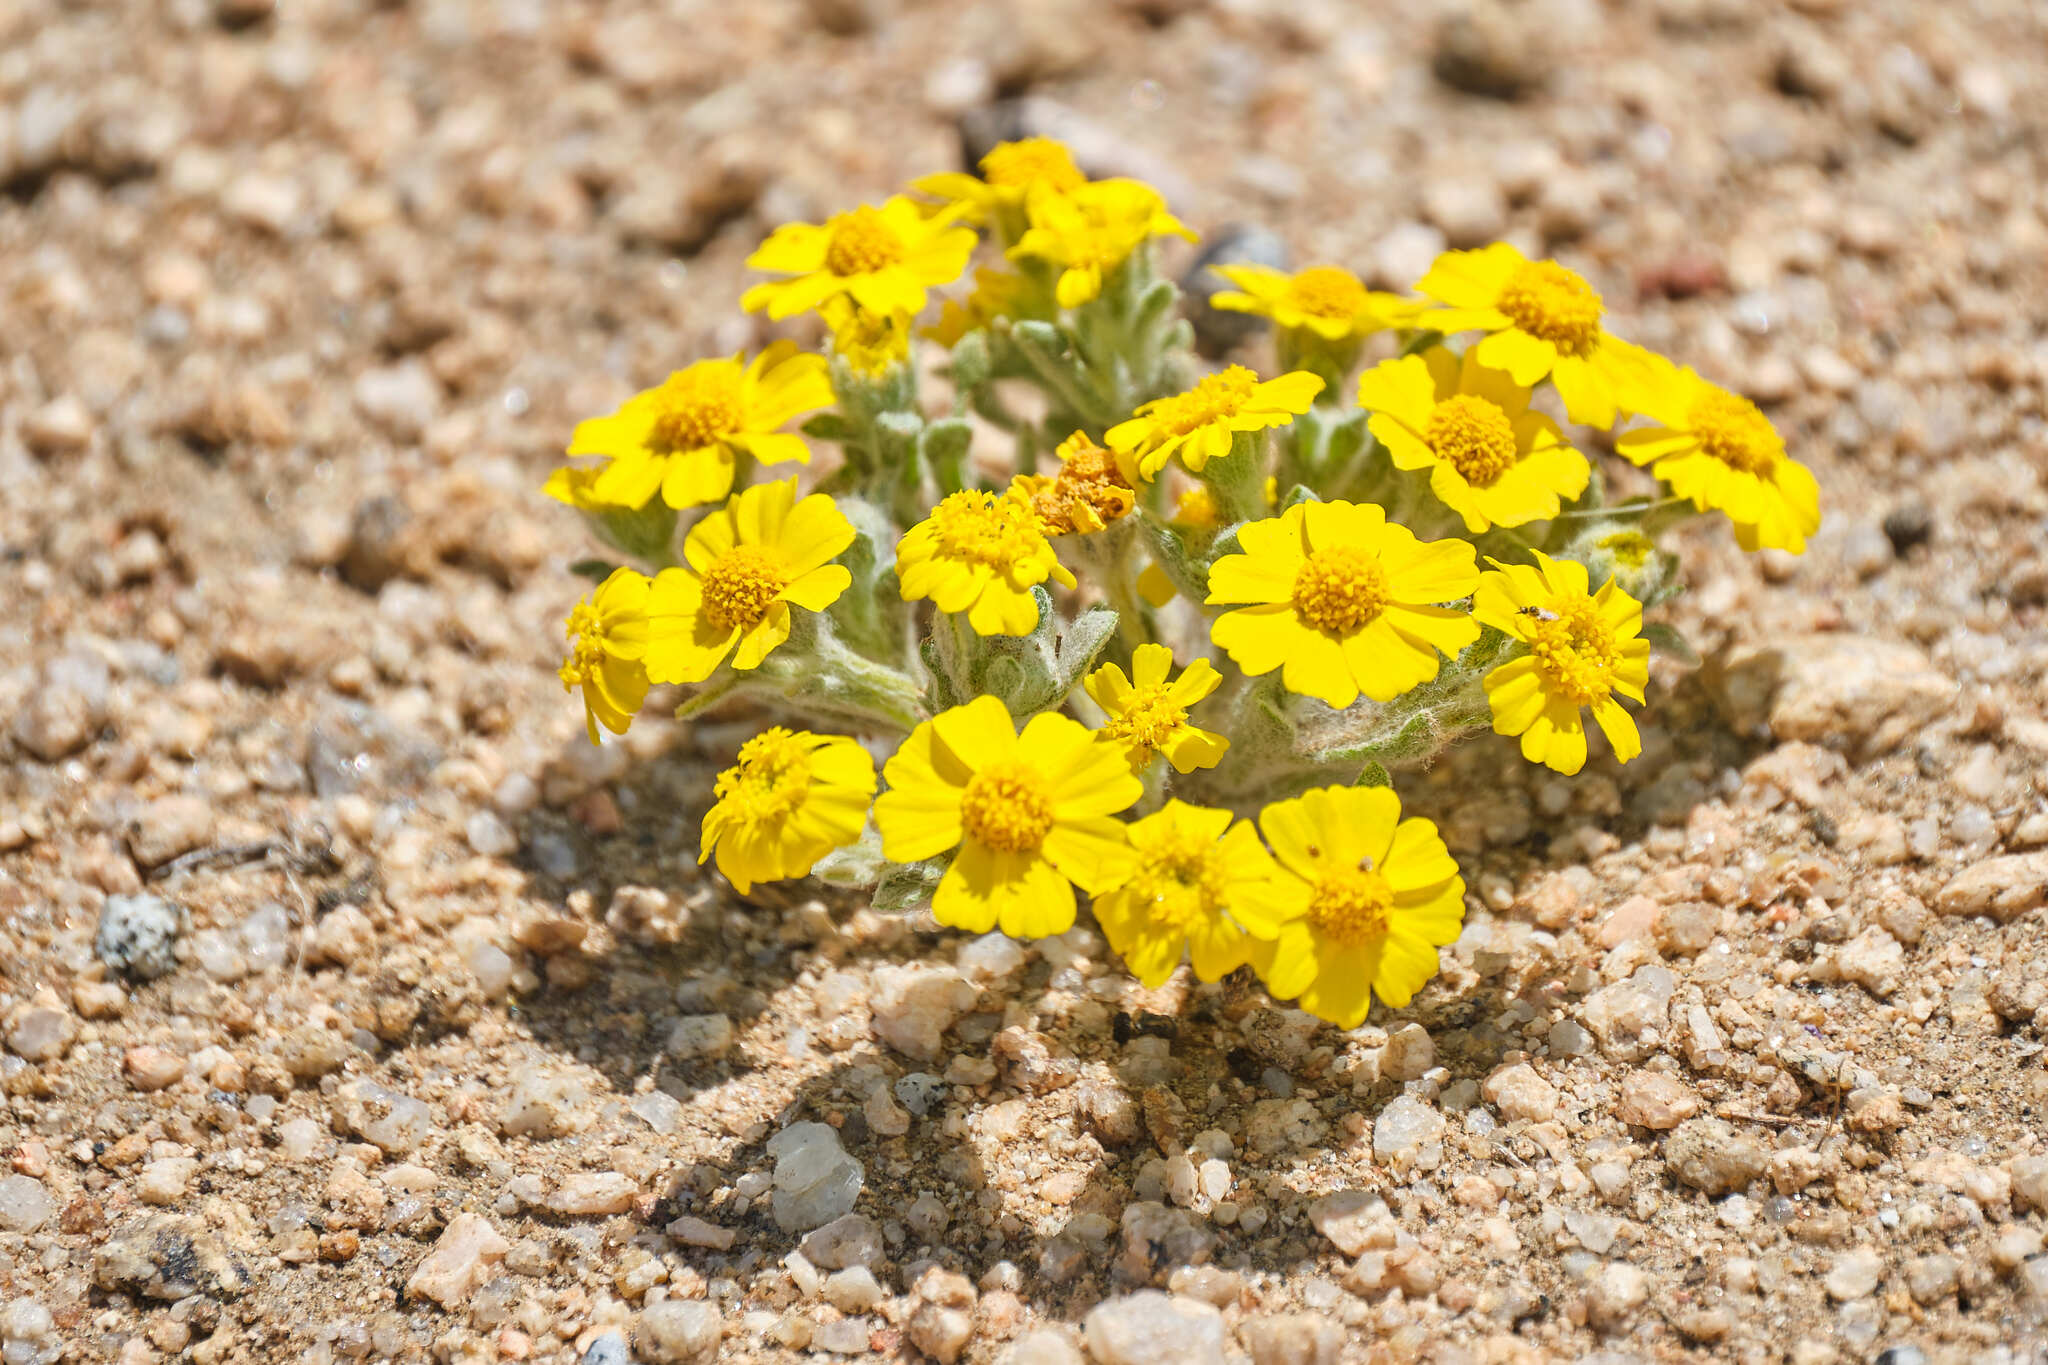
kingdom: Plantae
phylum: Tracheophyta
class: Magnoliopsida
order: Asterales
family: Asteraceae
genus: Eriophyllum
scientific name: Eriophyllum wallacei
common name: Wallace's woolly daisy
